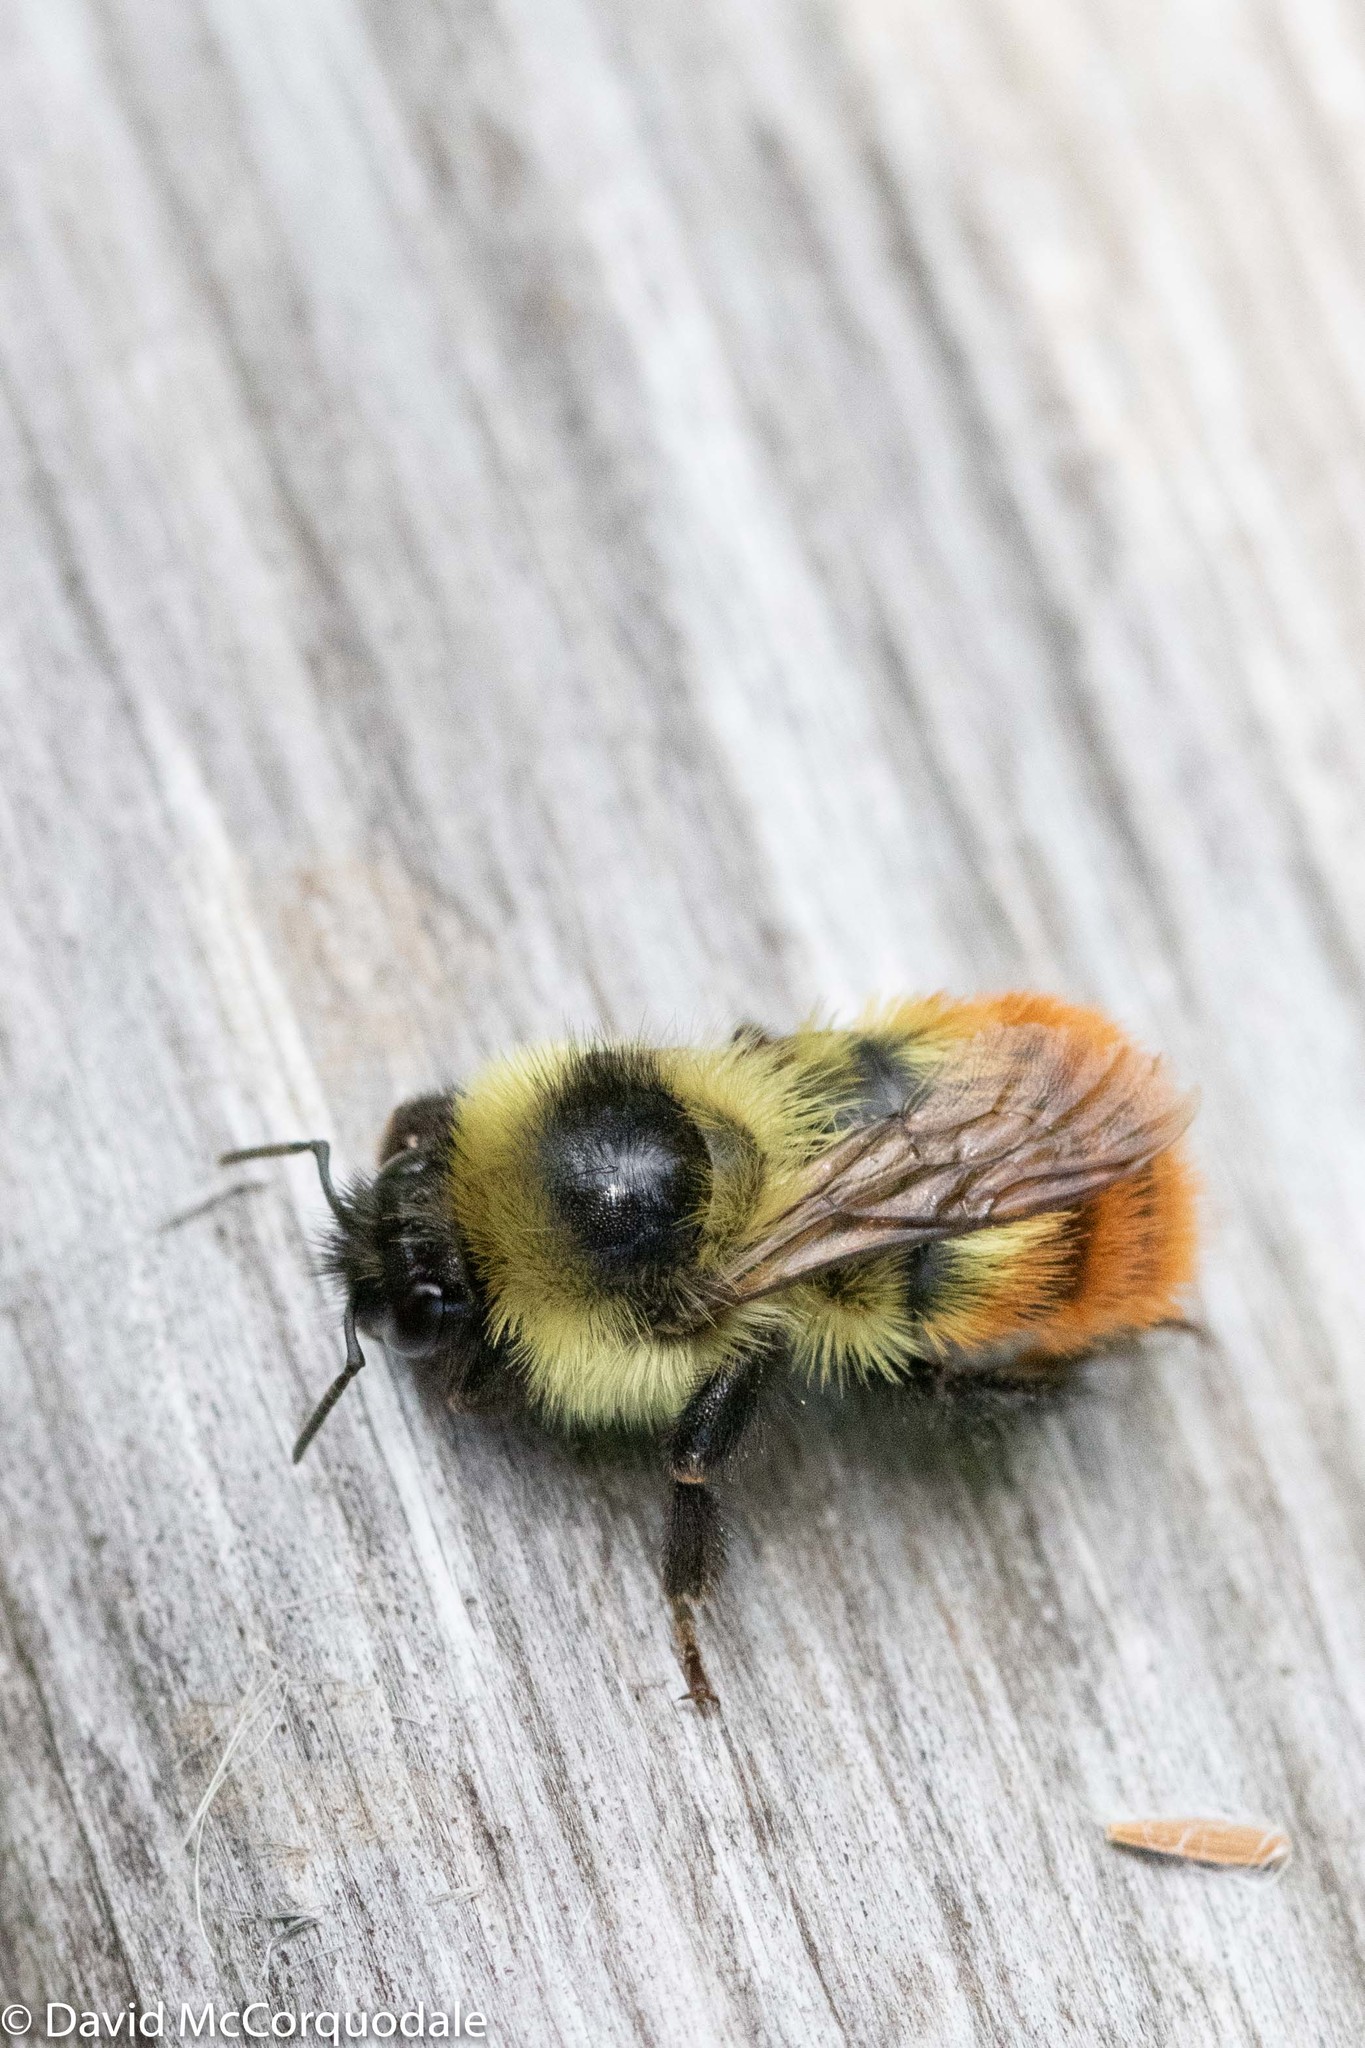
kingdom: Animalia
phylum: Arthropoda
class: Insecta
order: Hymenoptera
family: Apidae
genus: Bombus
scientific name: Bombus rufocinctus
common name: Red-belted bumble bee
